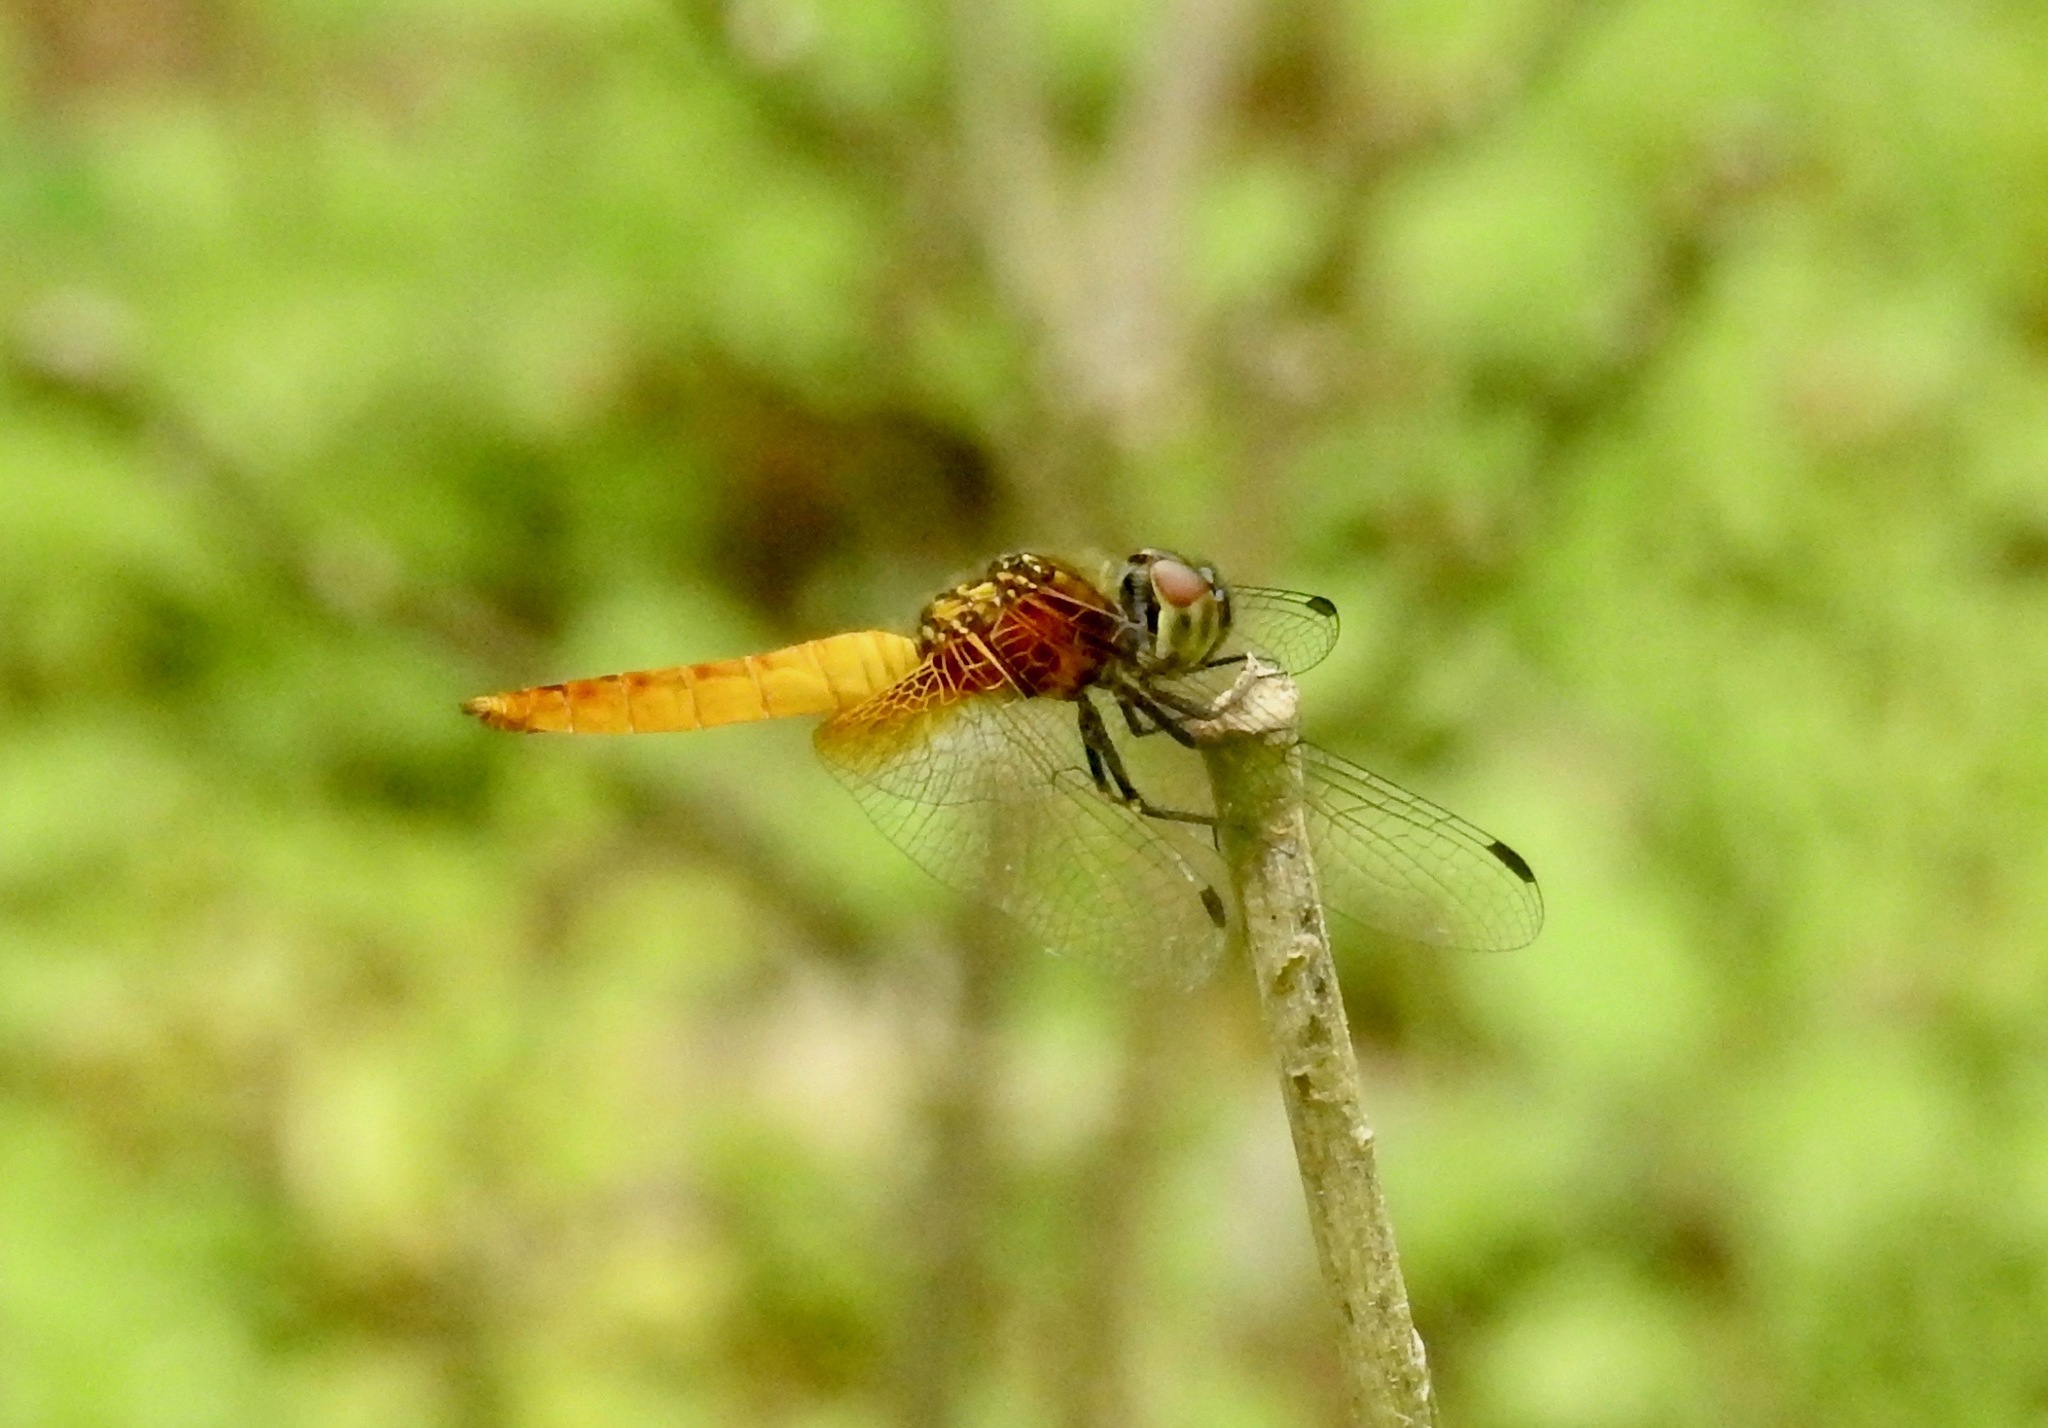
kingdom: Animalia
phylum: Arthropoda
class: Insecta
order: Odonata
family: Libellulidae
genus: Aethriamanta
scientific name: Aethriamanta brevipennis
